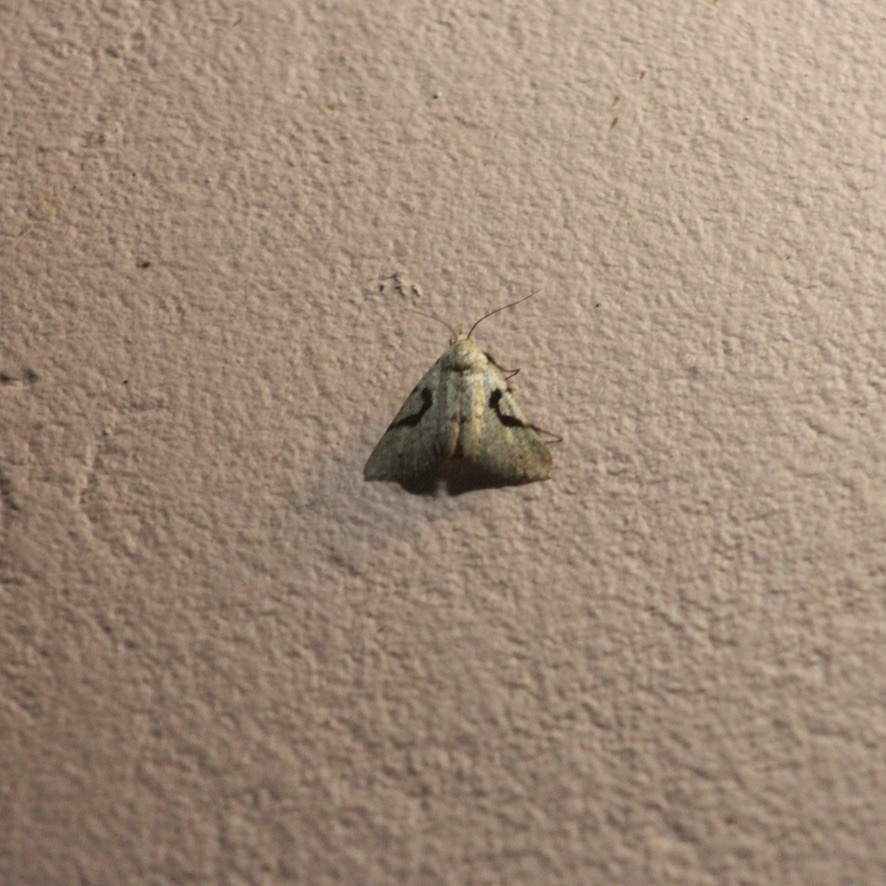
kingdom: Animalia
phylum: Arthropoda
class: Insecta
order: Lepidoptera
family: Erebidae
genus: Acanthermia
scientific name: Acanthermia concatenalis
